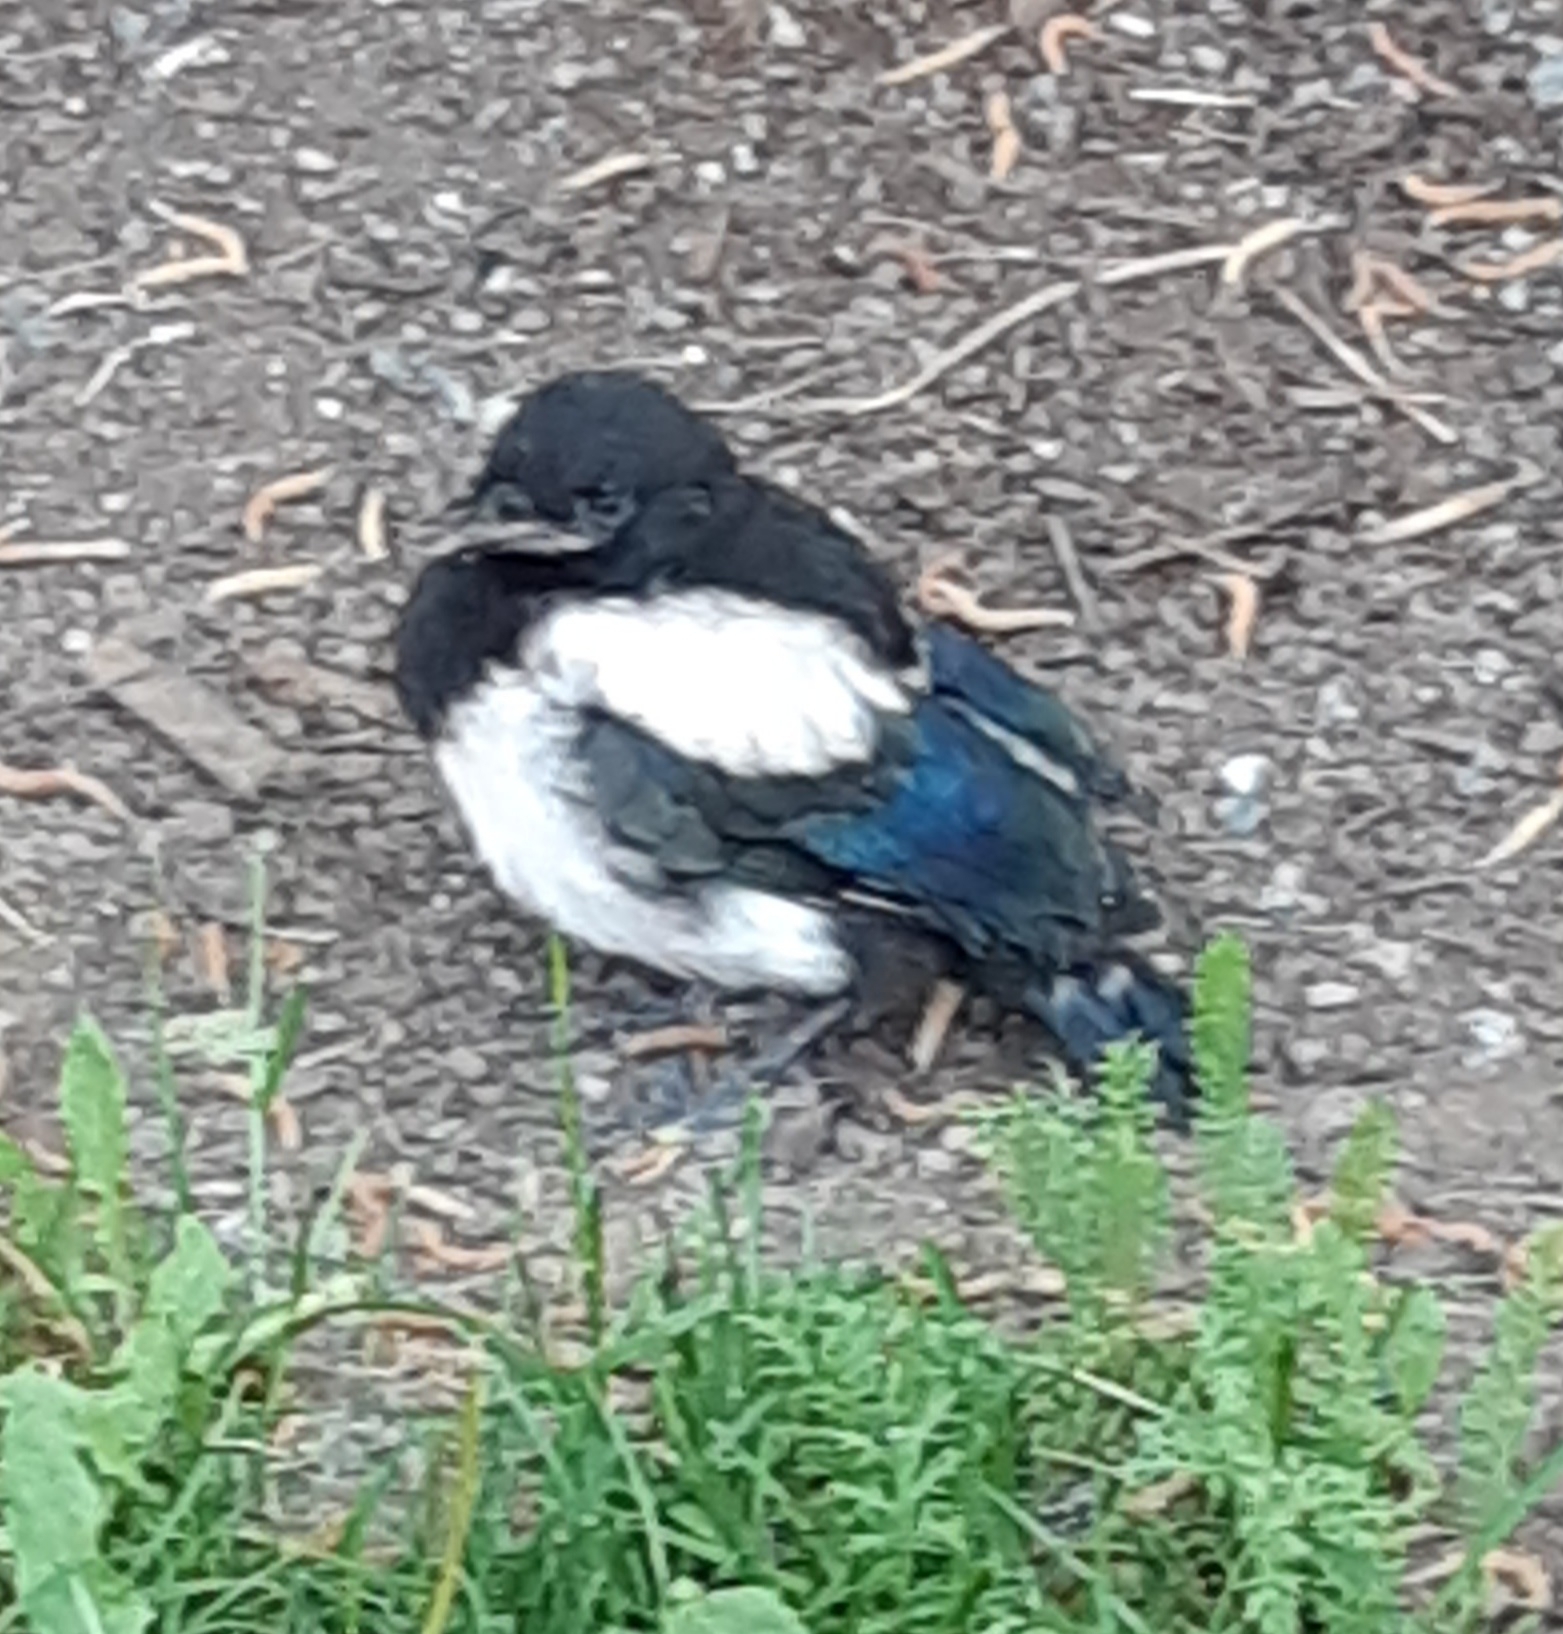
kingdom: Animalia
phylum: Chordata
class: Aves
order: Passeriformes
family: Corvidae
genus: Pica
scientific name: Pica pica
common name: Eurasian magpie
